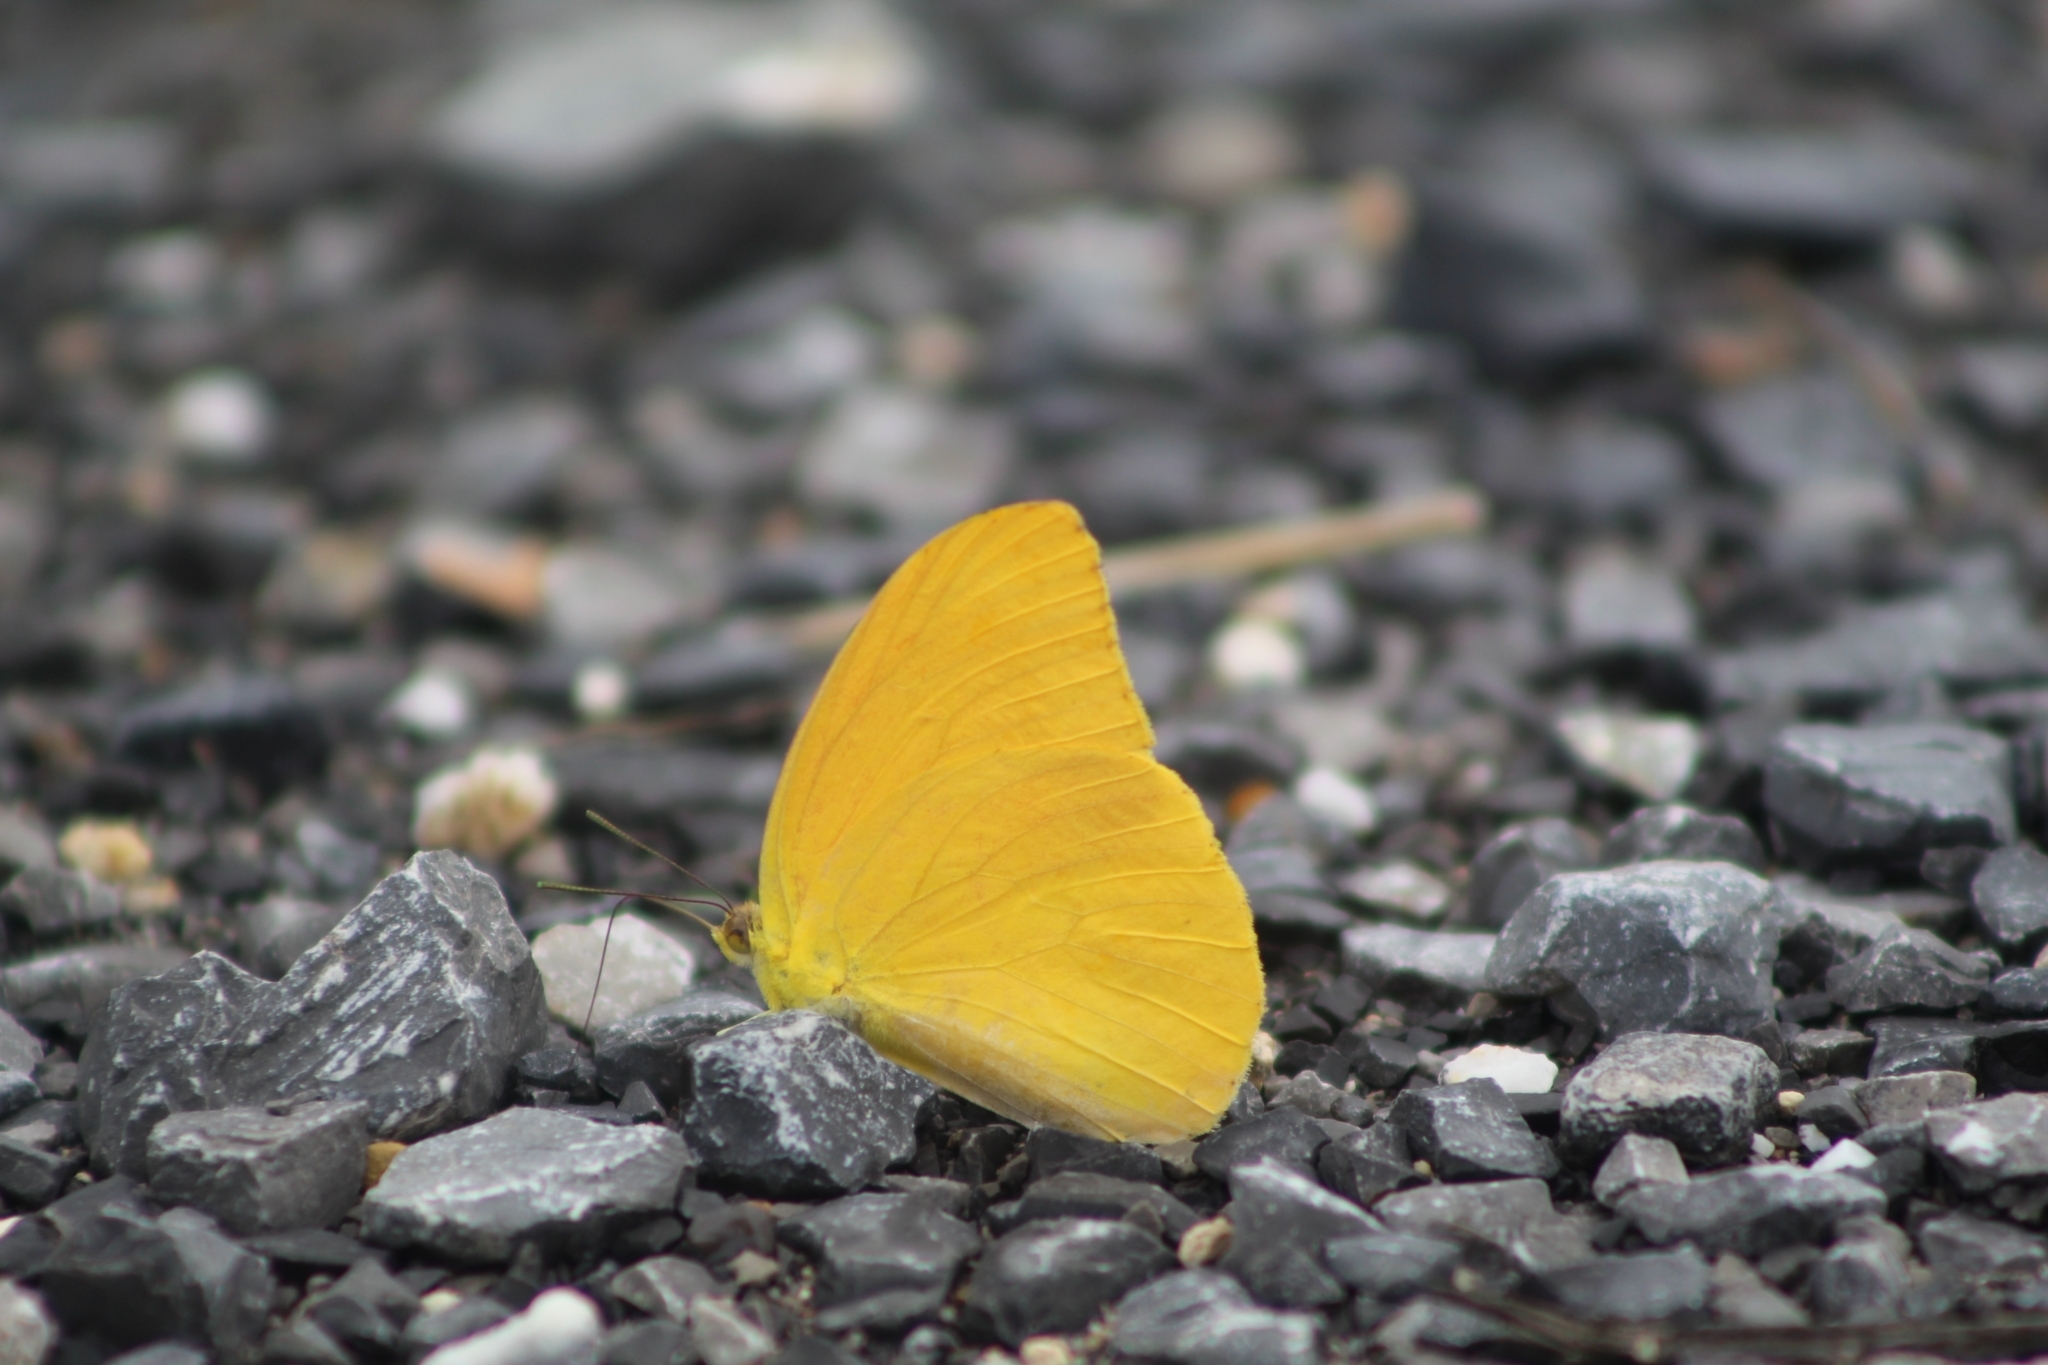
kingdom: Animalia
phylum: Arthropoda
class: Insecta
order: Lepidoptera
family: Pieridae
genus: Phoebis
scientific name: Phoebis agarithe
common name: Large orange sulphur
